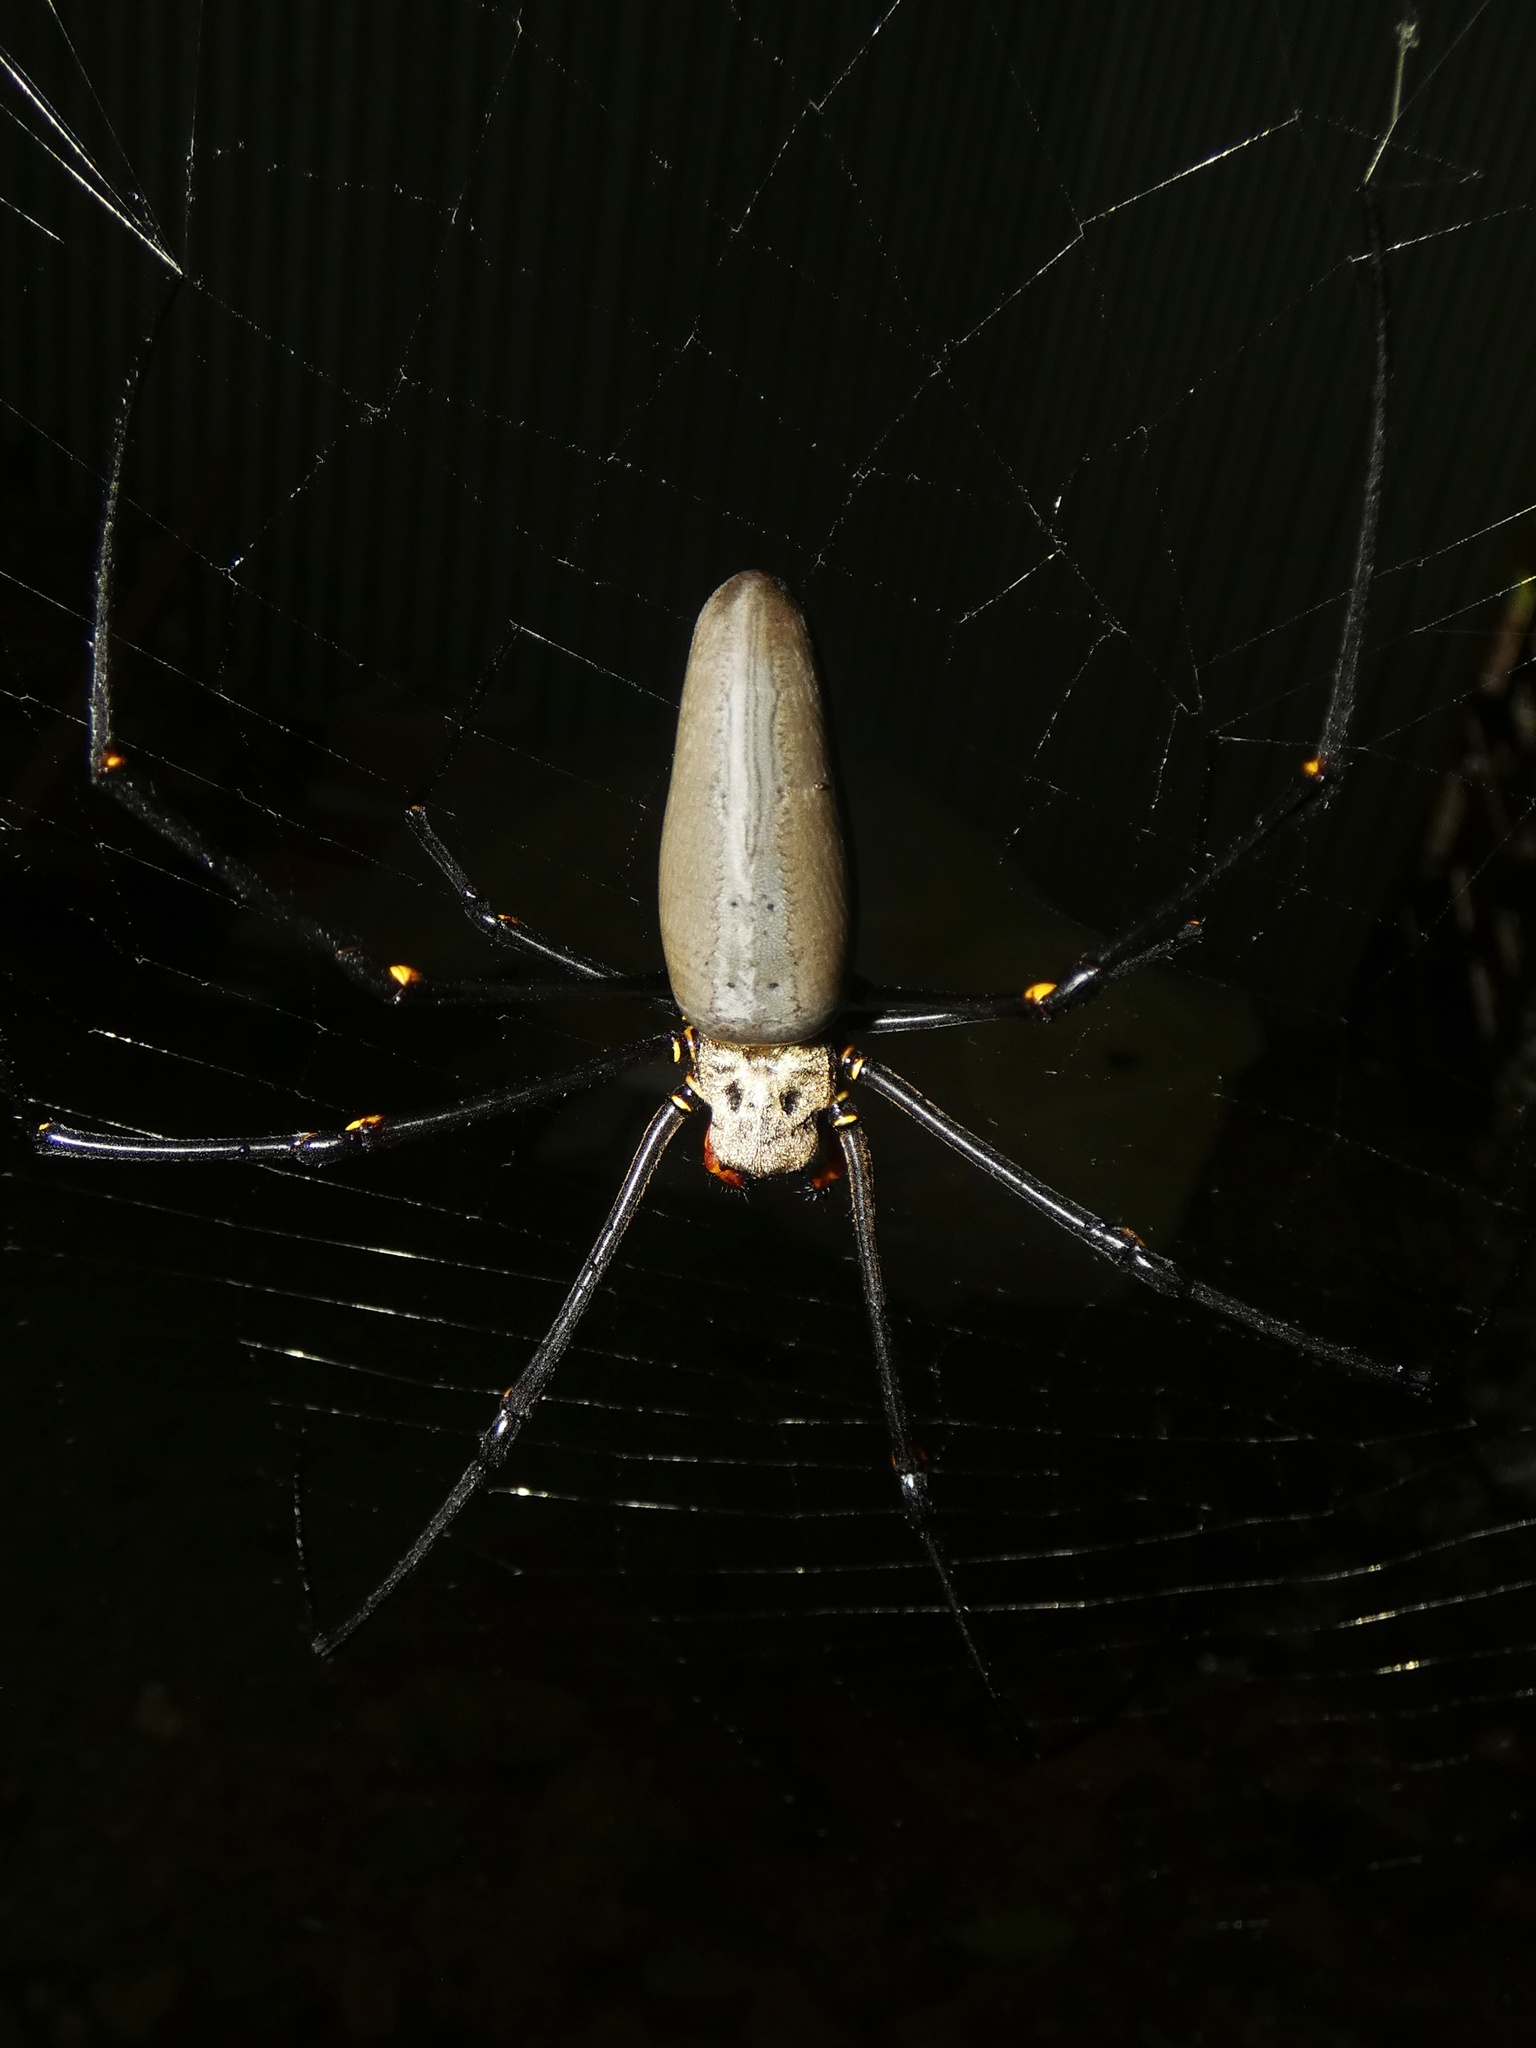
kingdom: Animalia
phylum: Arthropoda
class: Arachnida
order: Araneae
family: Araneidae
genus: Nephila
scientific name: Nephila pilipes
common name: Giant golden orb weaver
